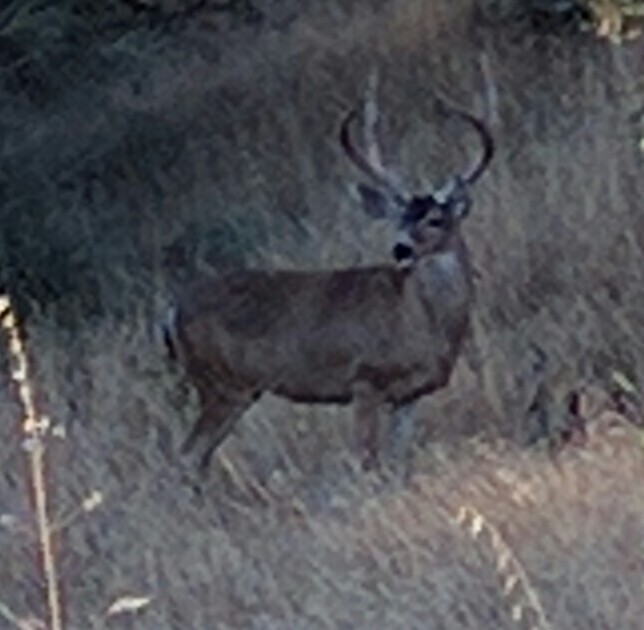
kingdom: Animalia
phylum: Chordata
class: Mammalia
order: Artiodactyla
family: Cervidae
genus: Odocoileus
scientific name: Odocoileus hemionus
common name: Mule deer
